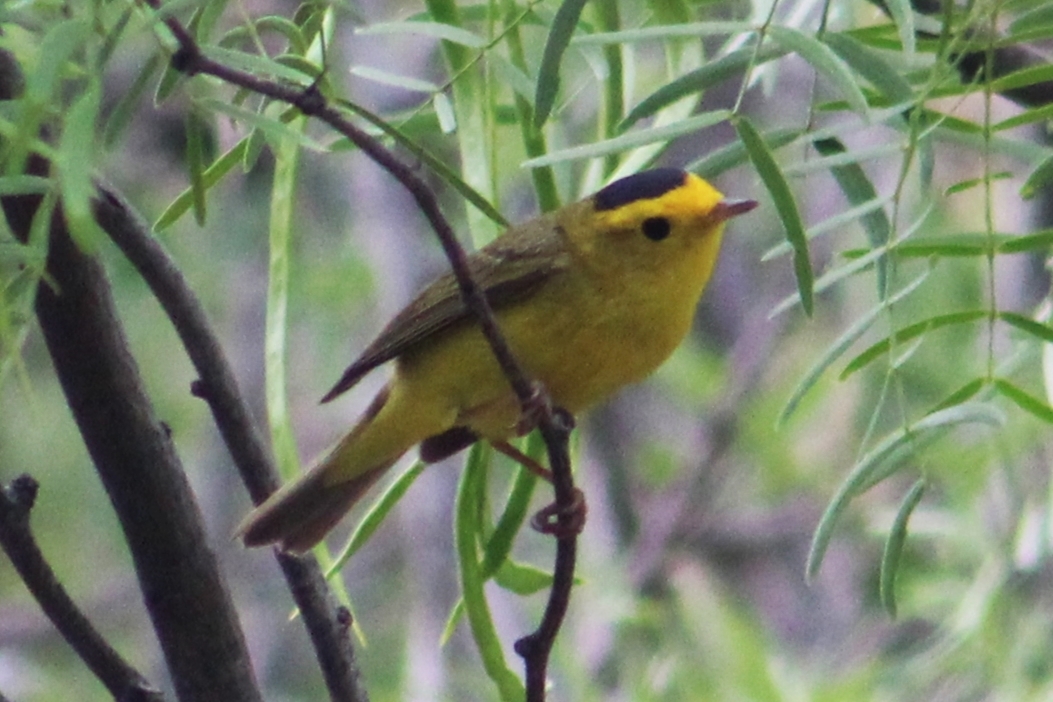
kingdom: Animalia
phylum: Chordata
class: Aves
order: Passeriformes
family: Parulidae
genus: Cardellina
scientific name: Cardellina pusilla
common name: Wilson's warbler
